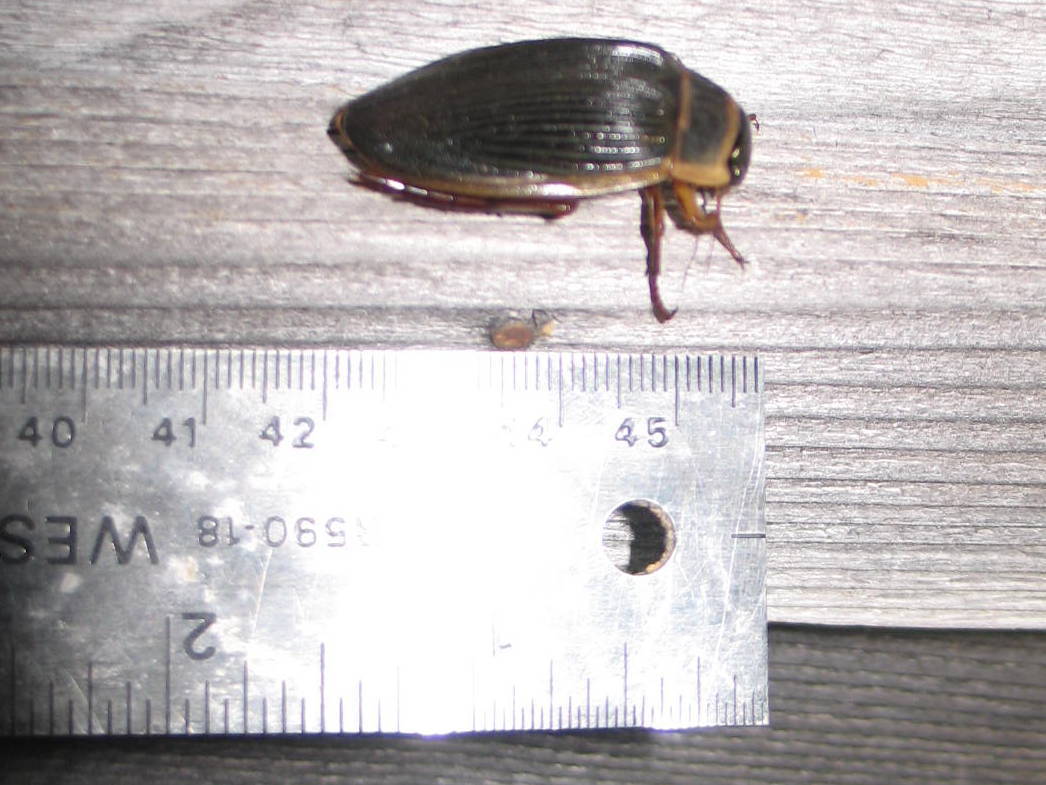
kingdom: Animalia
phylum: Arthropoda
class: Insecta
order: Coleoptera
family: Dytiscidae
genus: Dytiscus
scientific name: Dytiscus
